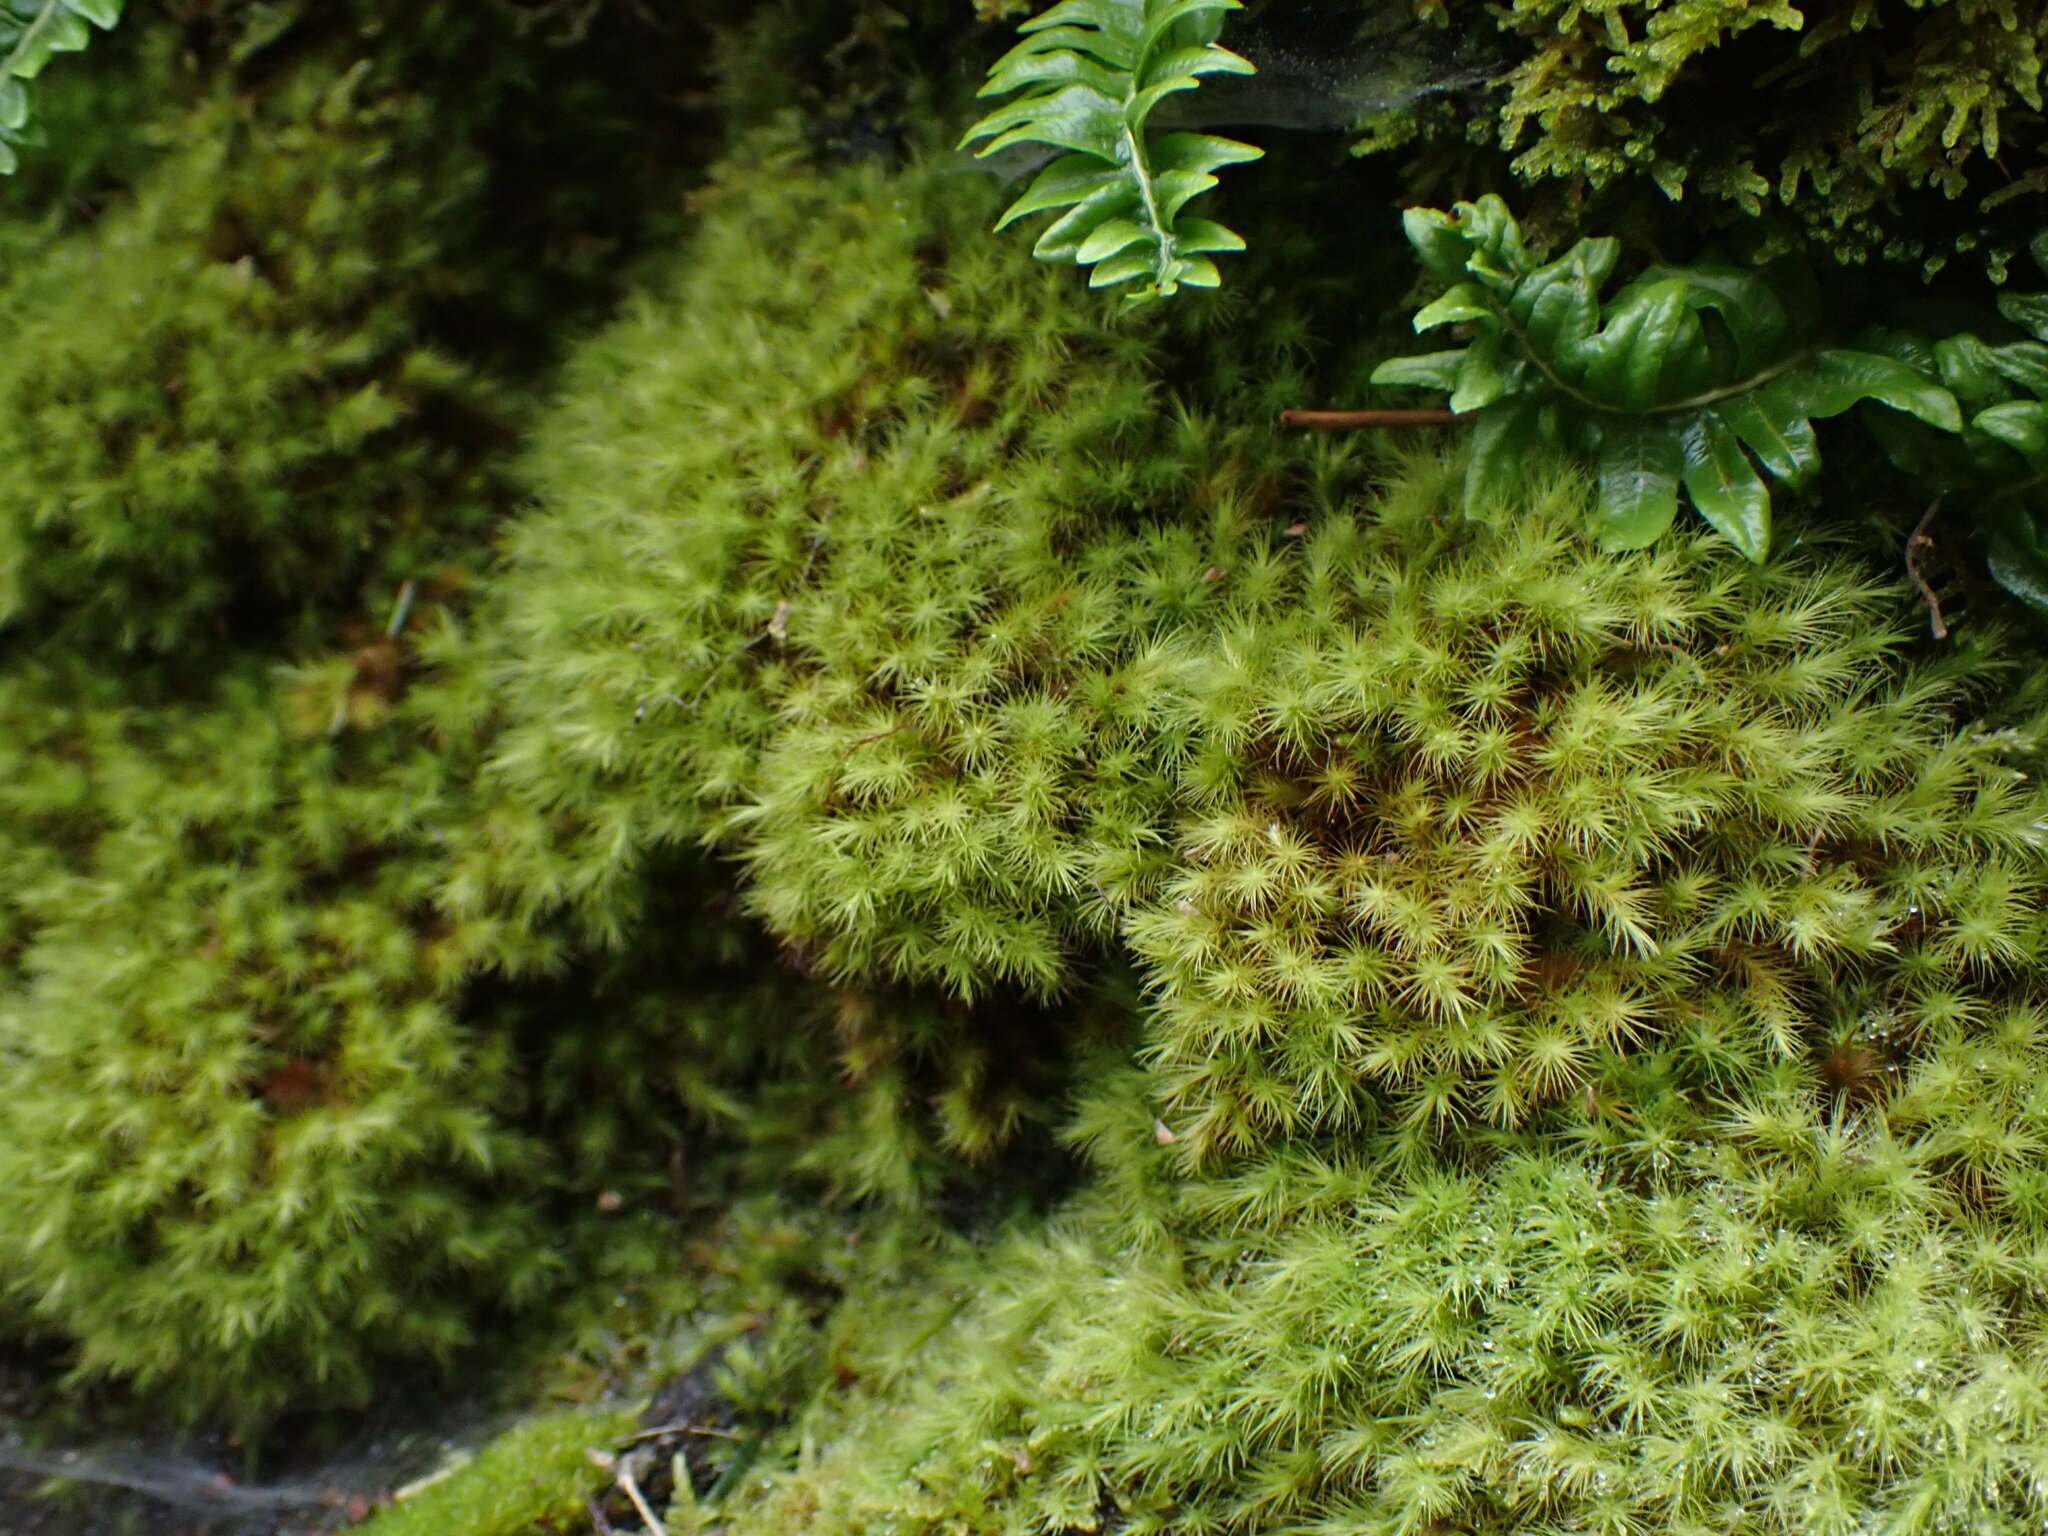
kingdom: Plantae
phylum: Bryophyta
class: Bryopsida
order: Bartramiales
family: Bartramiaceae
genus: Anacolia
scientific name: Anacolia menziesii
